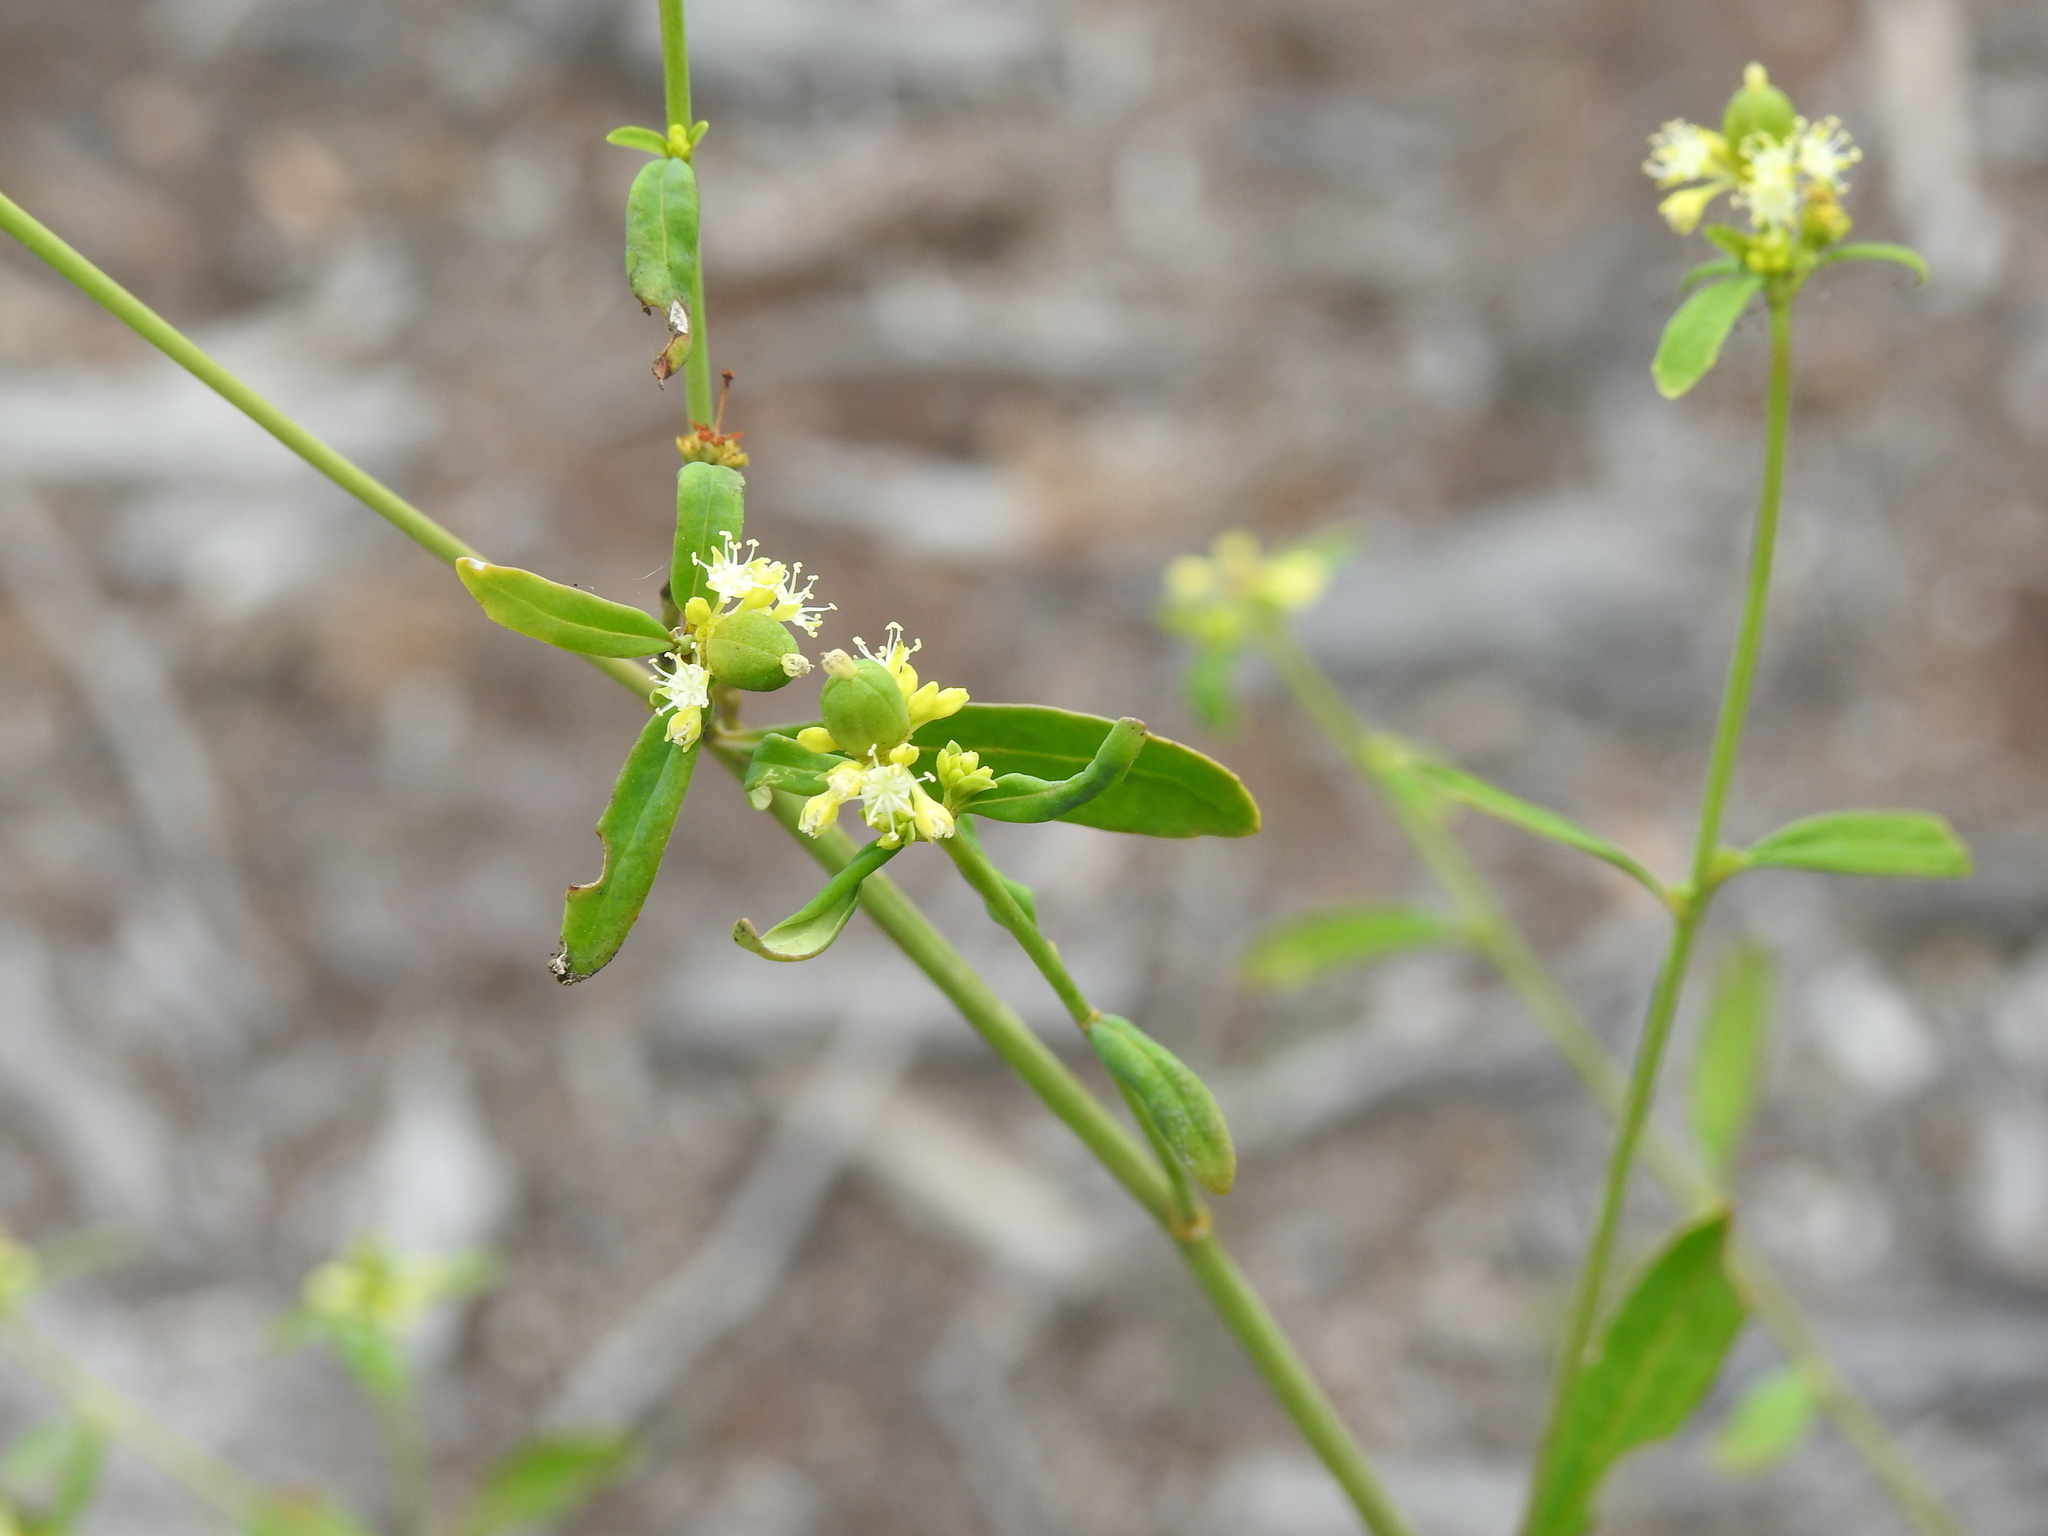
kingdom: Plantae
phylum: Tracheophyta
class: Magnoliopsida
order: Malpighiales
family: Euphorbiaceae
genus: Monotaxis
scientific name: Monotaxis macrophylla
